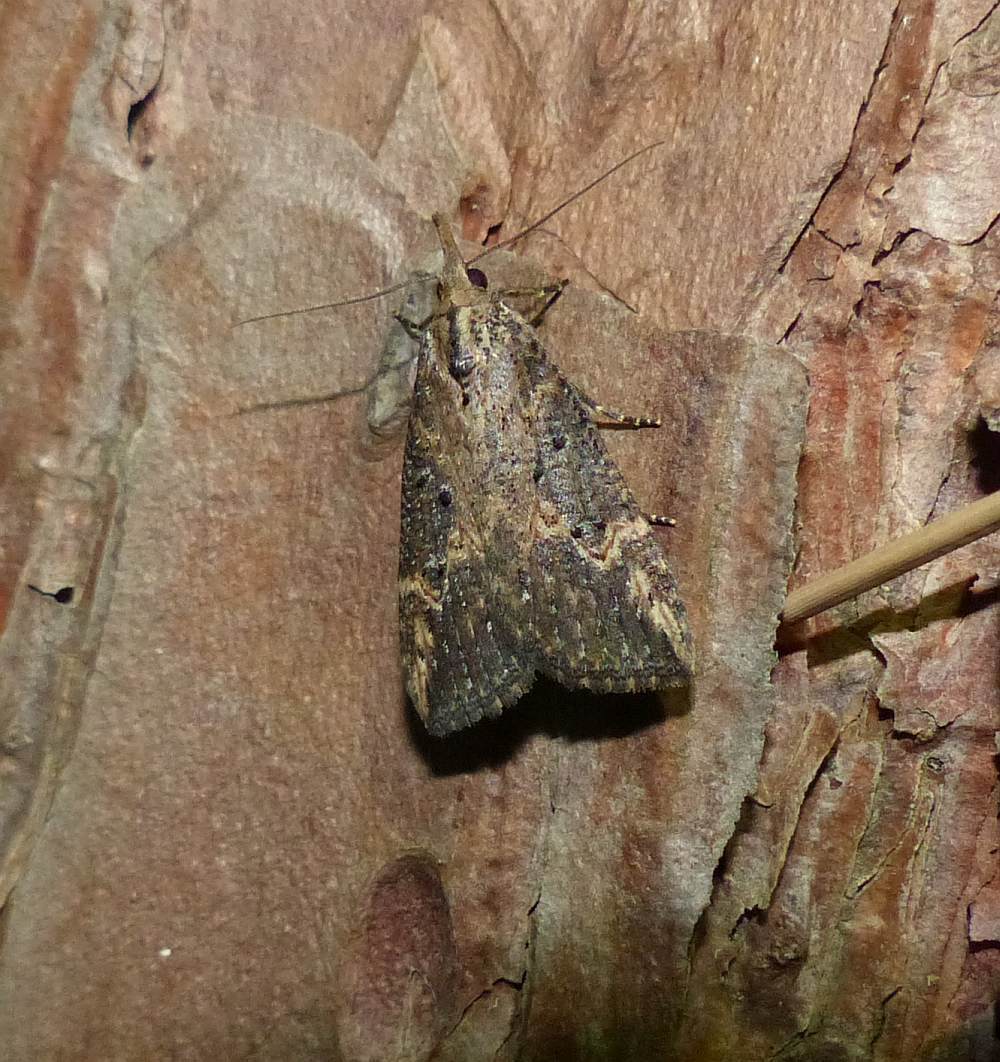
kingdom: Animalia
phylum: Arthropoda
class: Insecta
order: Lepidoptera
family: Erebidae
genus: Hypena
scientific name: Hypena humuli
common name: Hop vine snout
